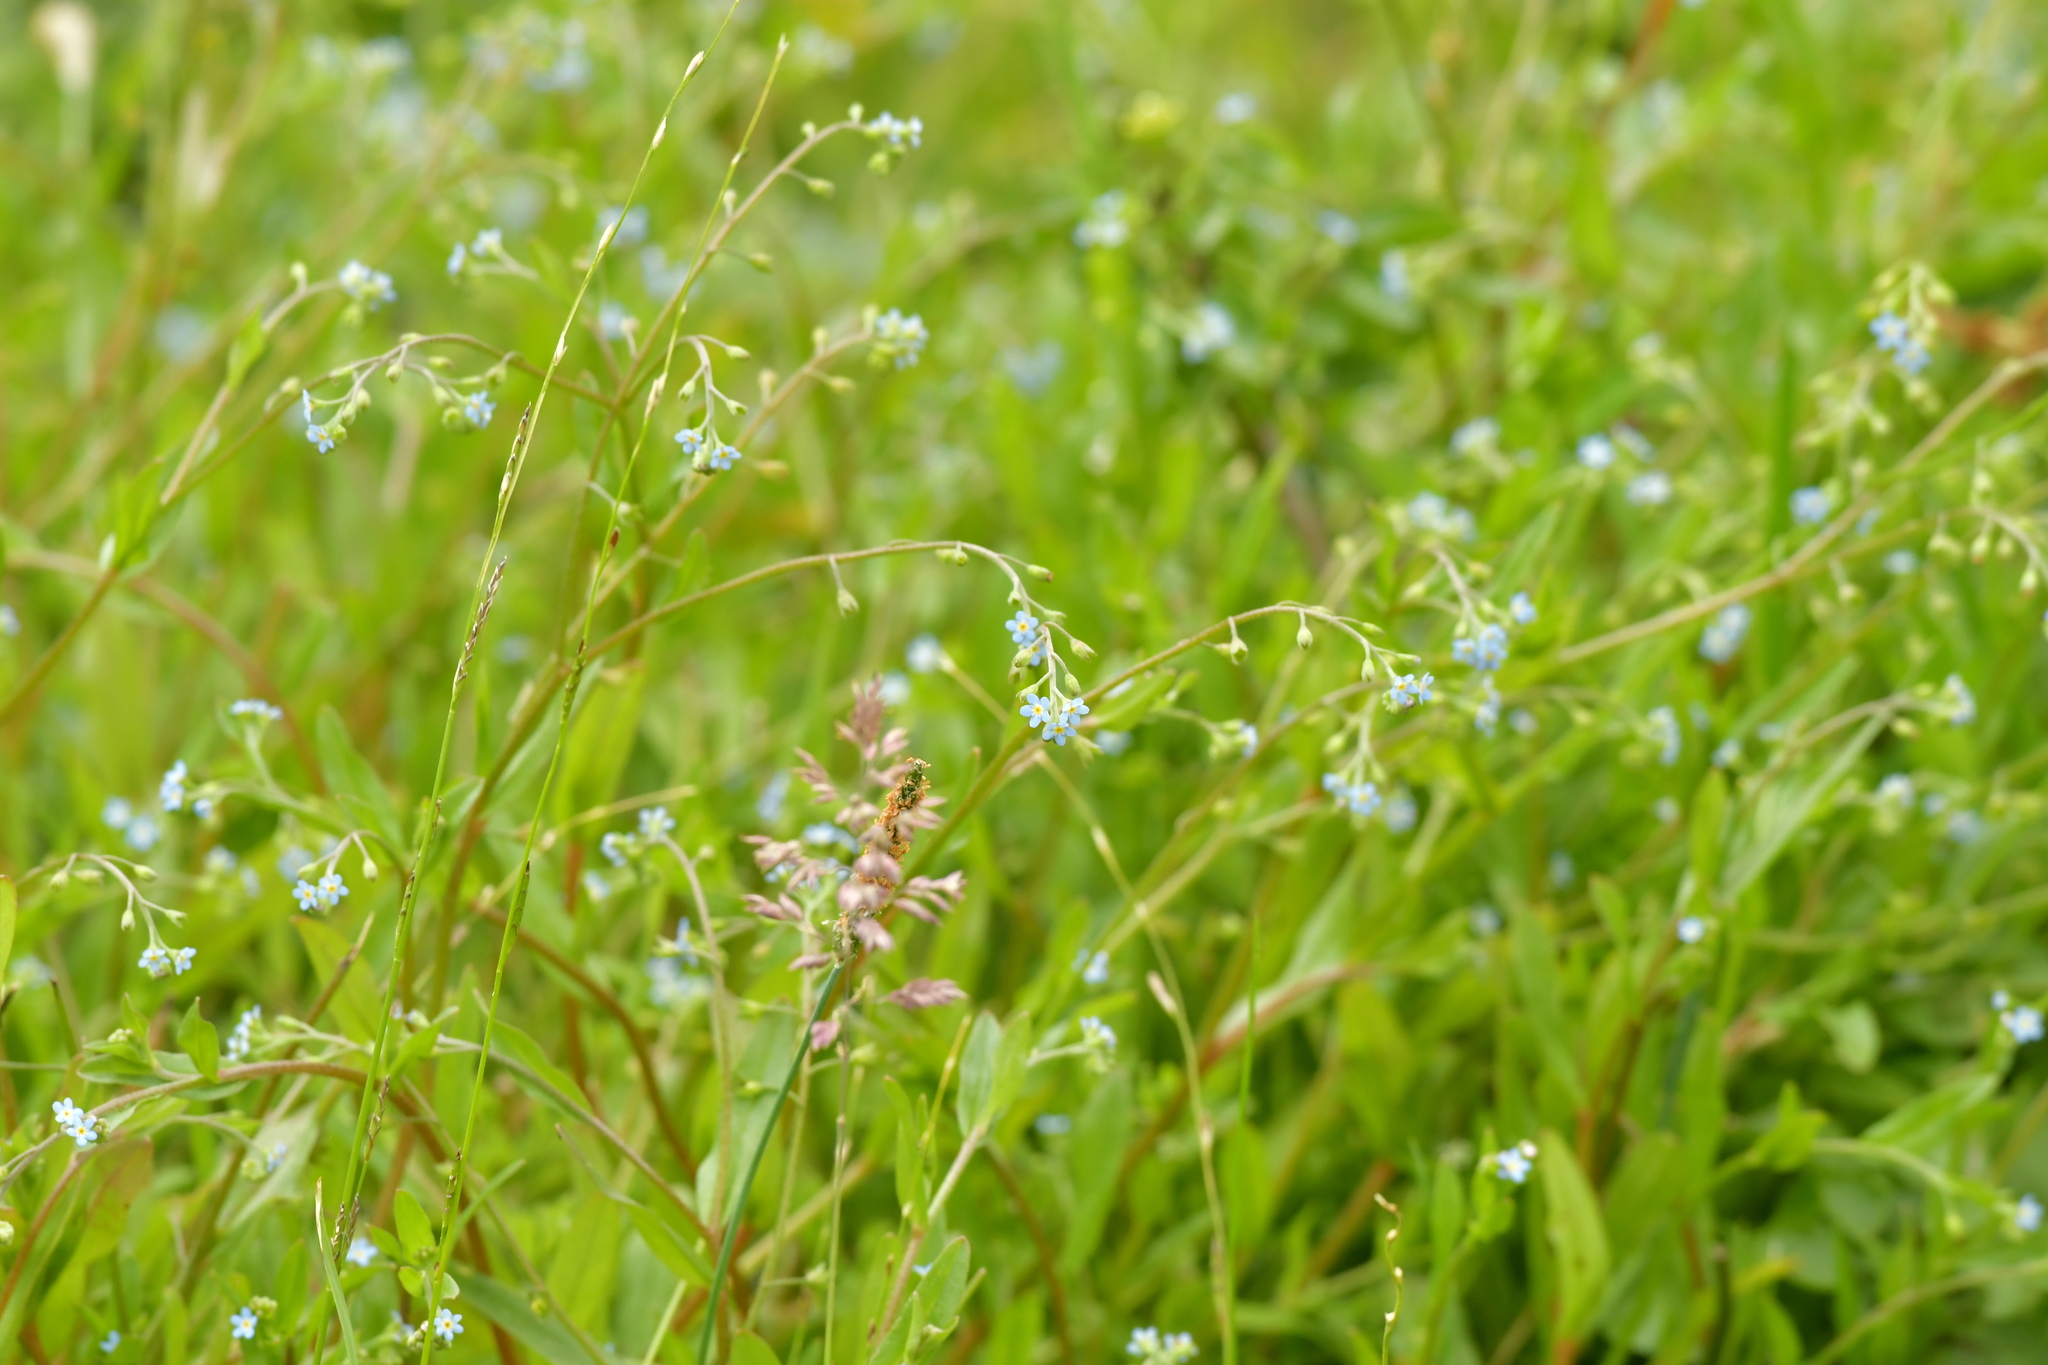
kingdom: Plantae
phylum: Tracheophyta
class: Magnoliopsida
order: Boraginales
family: Boraginaceae
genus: Myosotis
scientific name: Myosotis laxa
